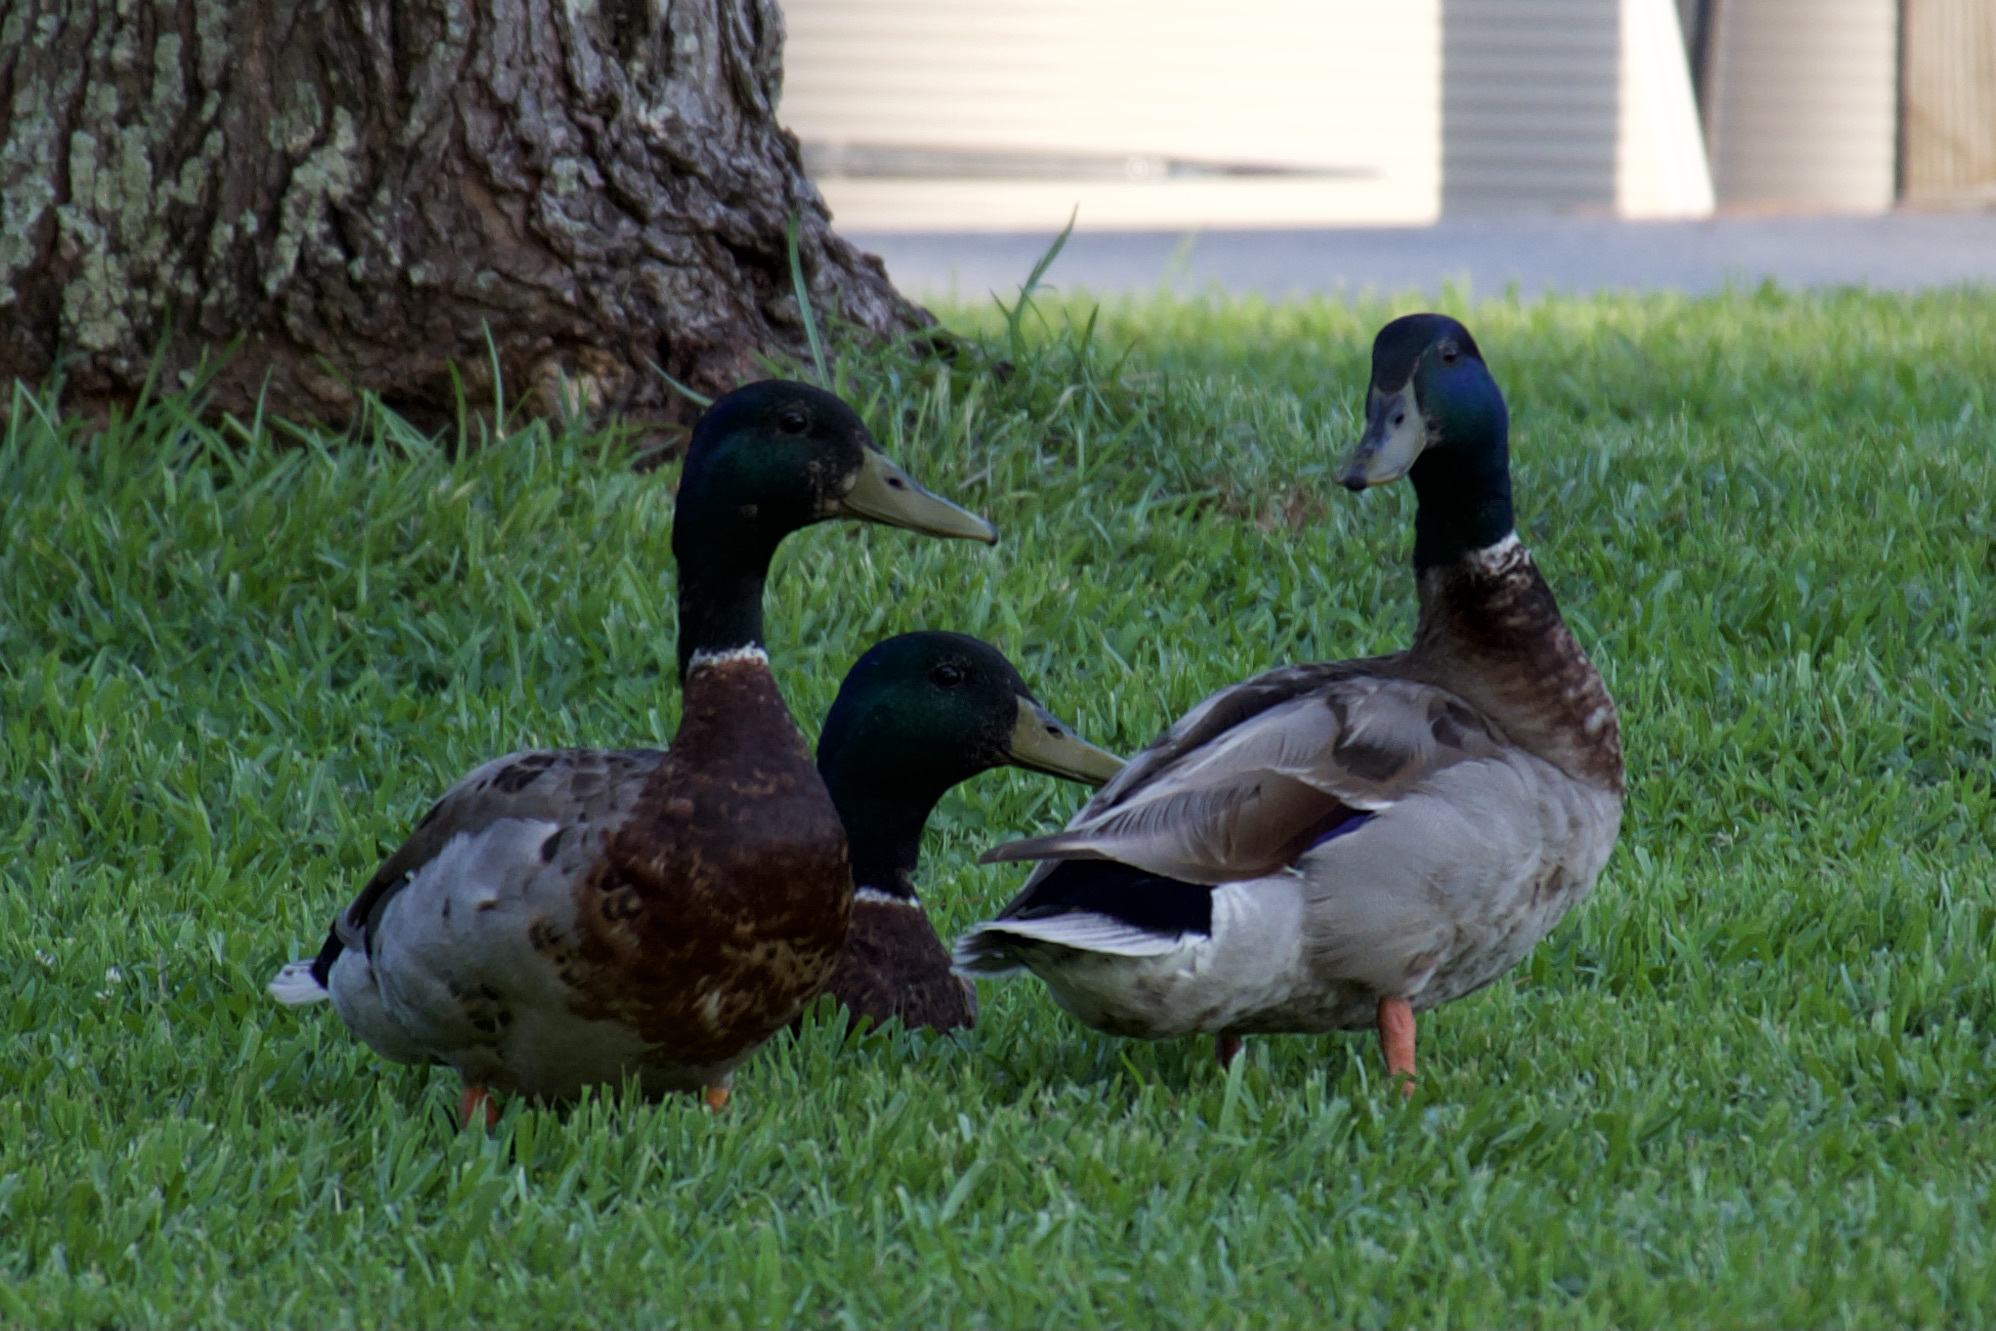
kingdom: Animalia
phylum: Chordata
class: Aves
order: Anseriformes
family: Anatidae
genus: Anas
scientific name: Anas platyrhynchos
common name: Mallard
